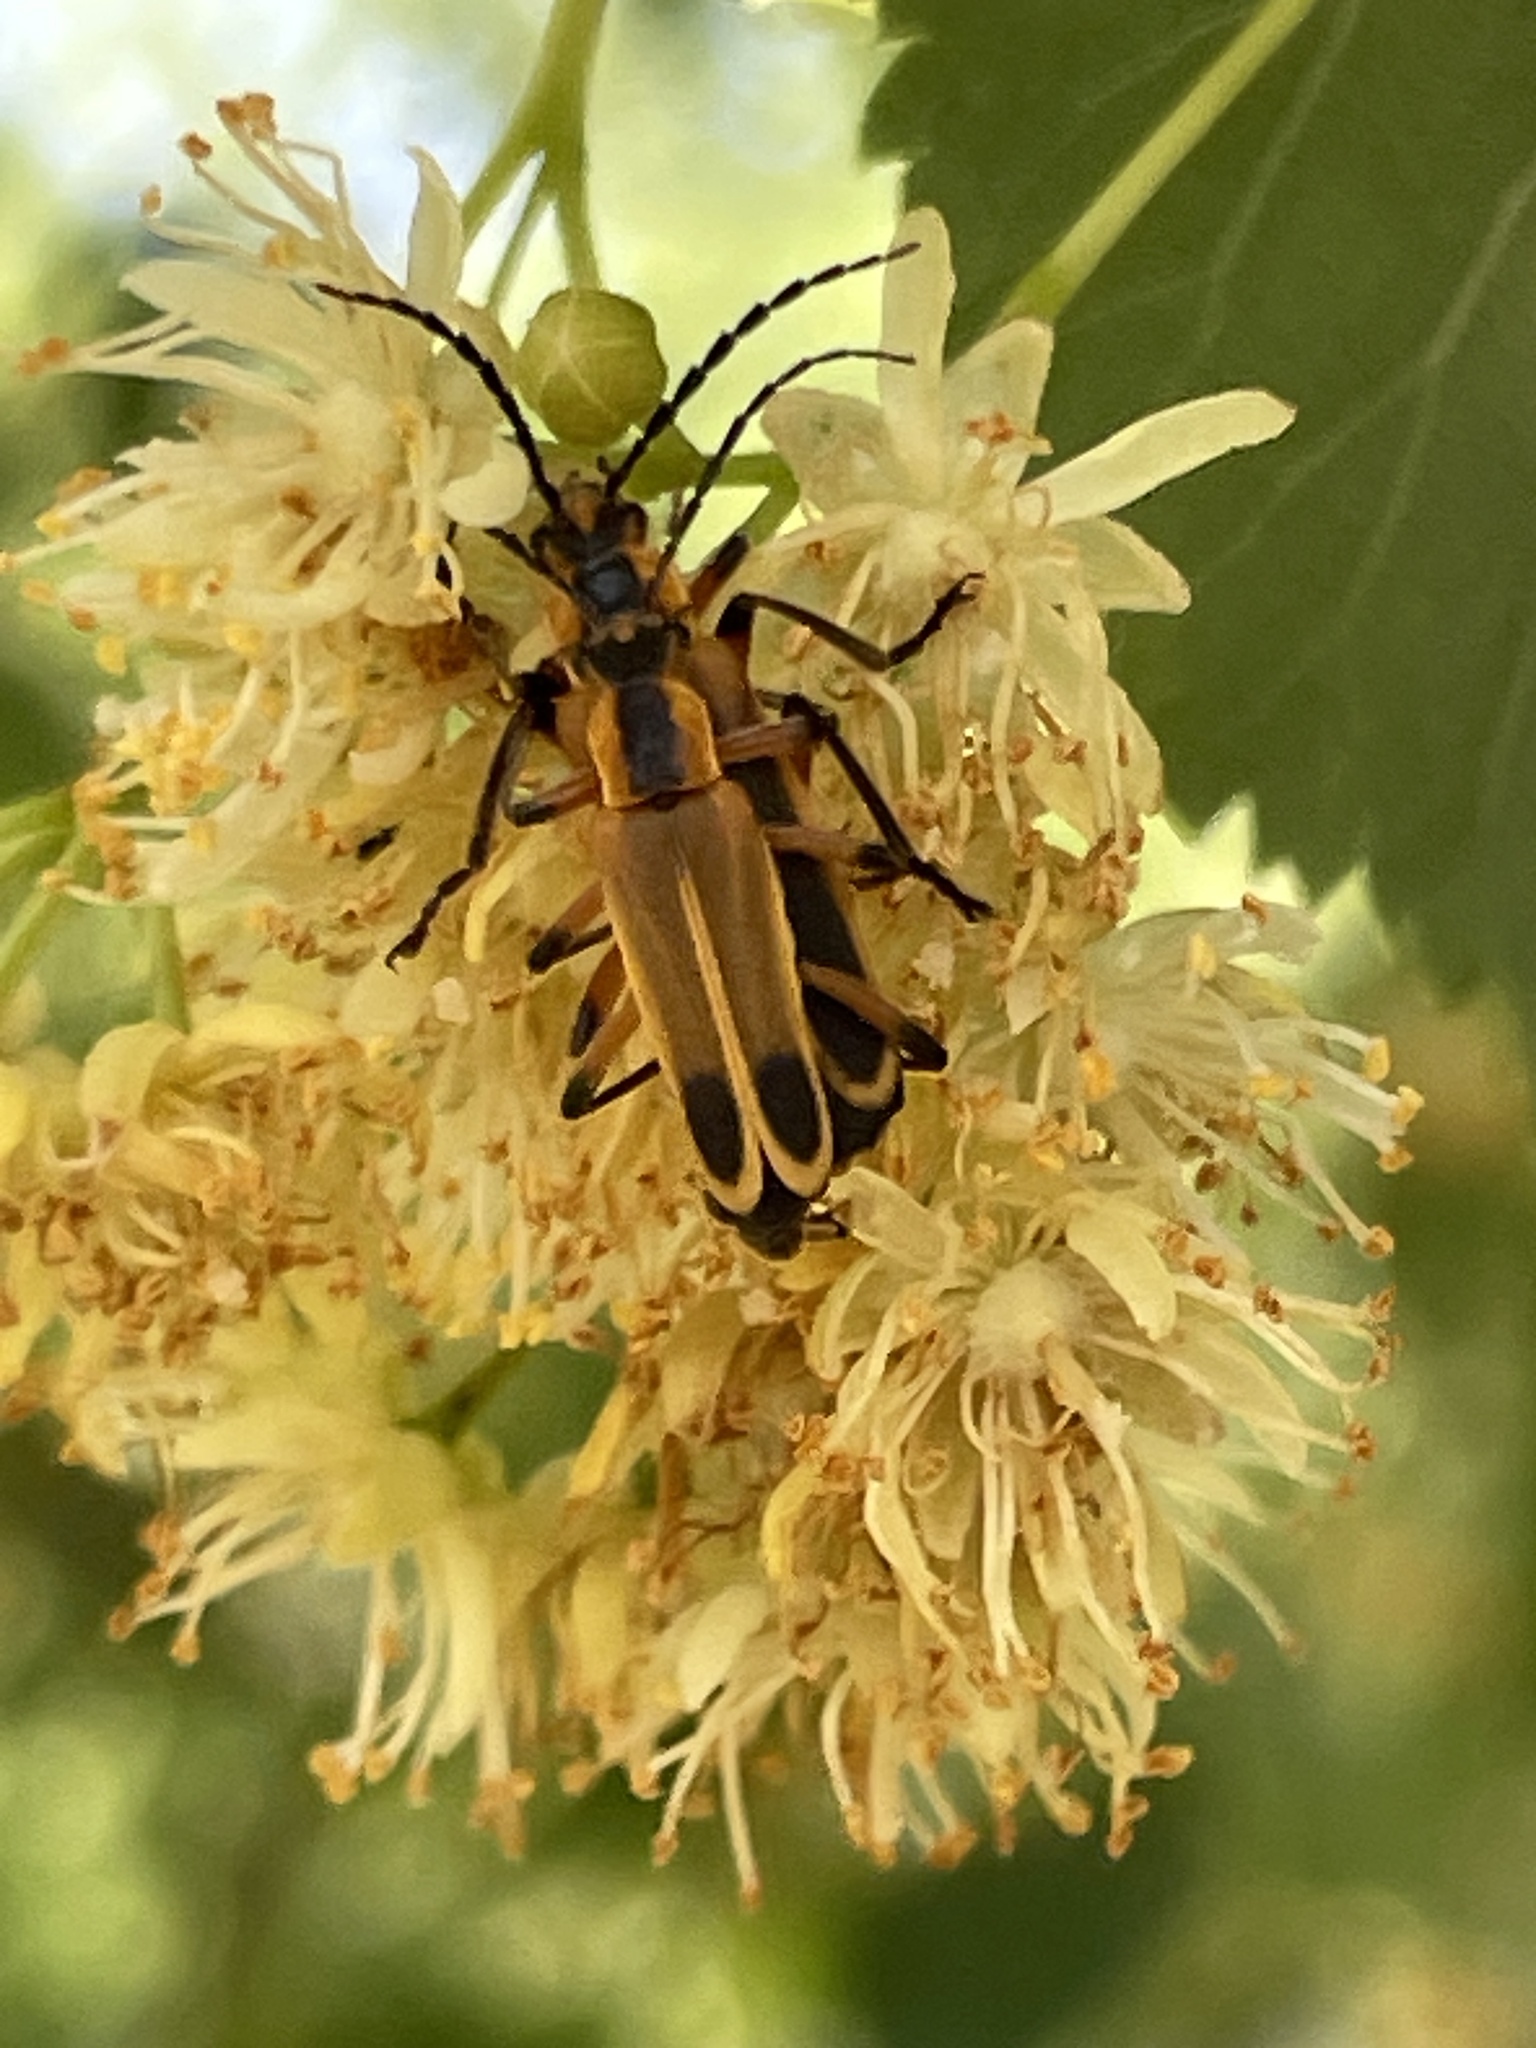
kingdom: Animalia
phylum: Arthropoda
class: Insecta
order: Coleoptera
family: Cantharidae
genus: Chauliognathus
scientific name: Chauliognathus marginatus
